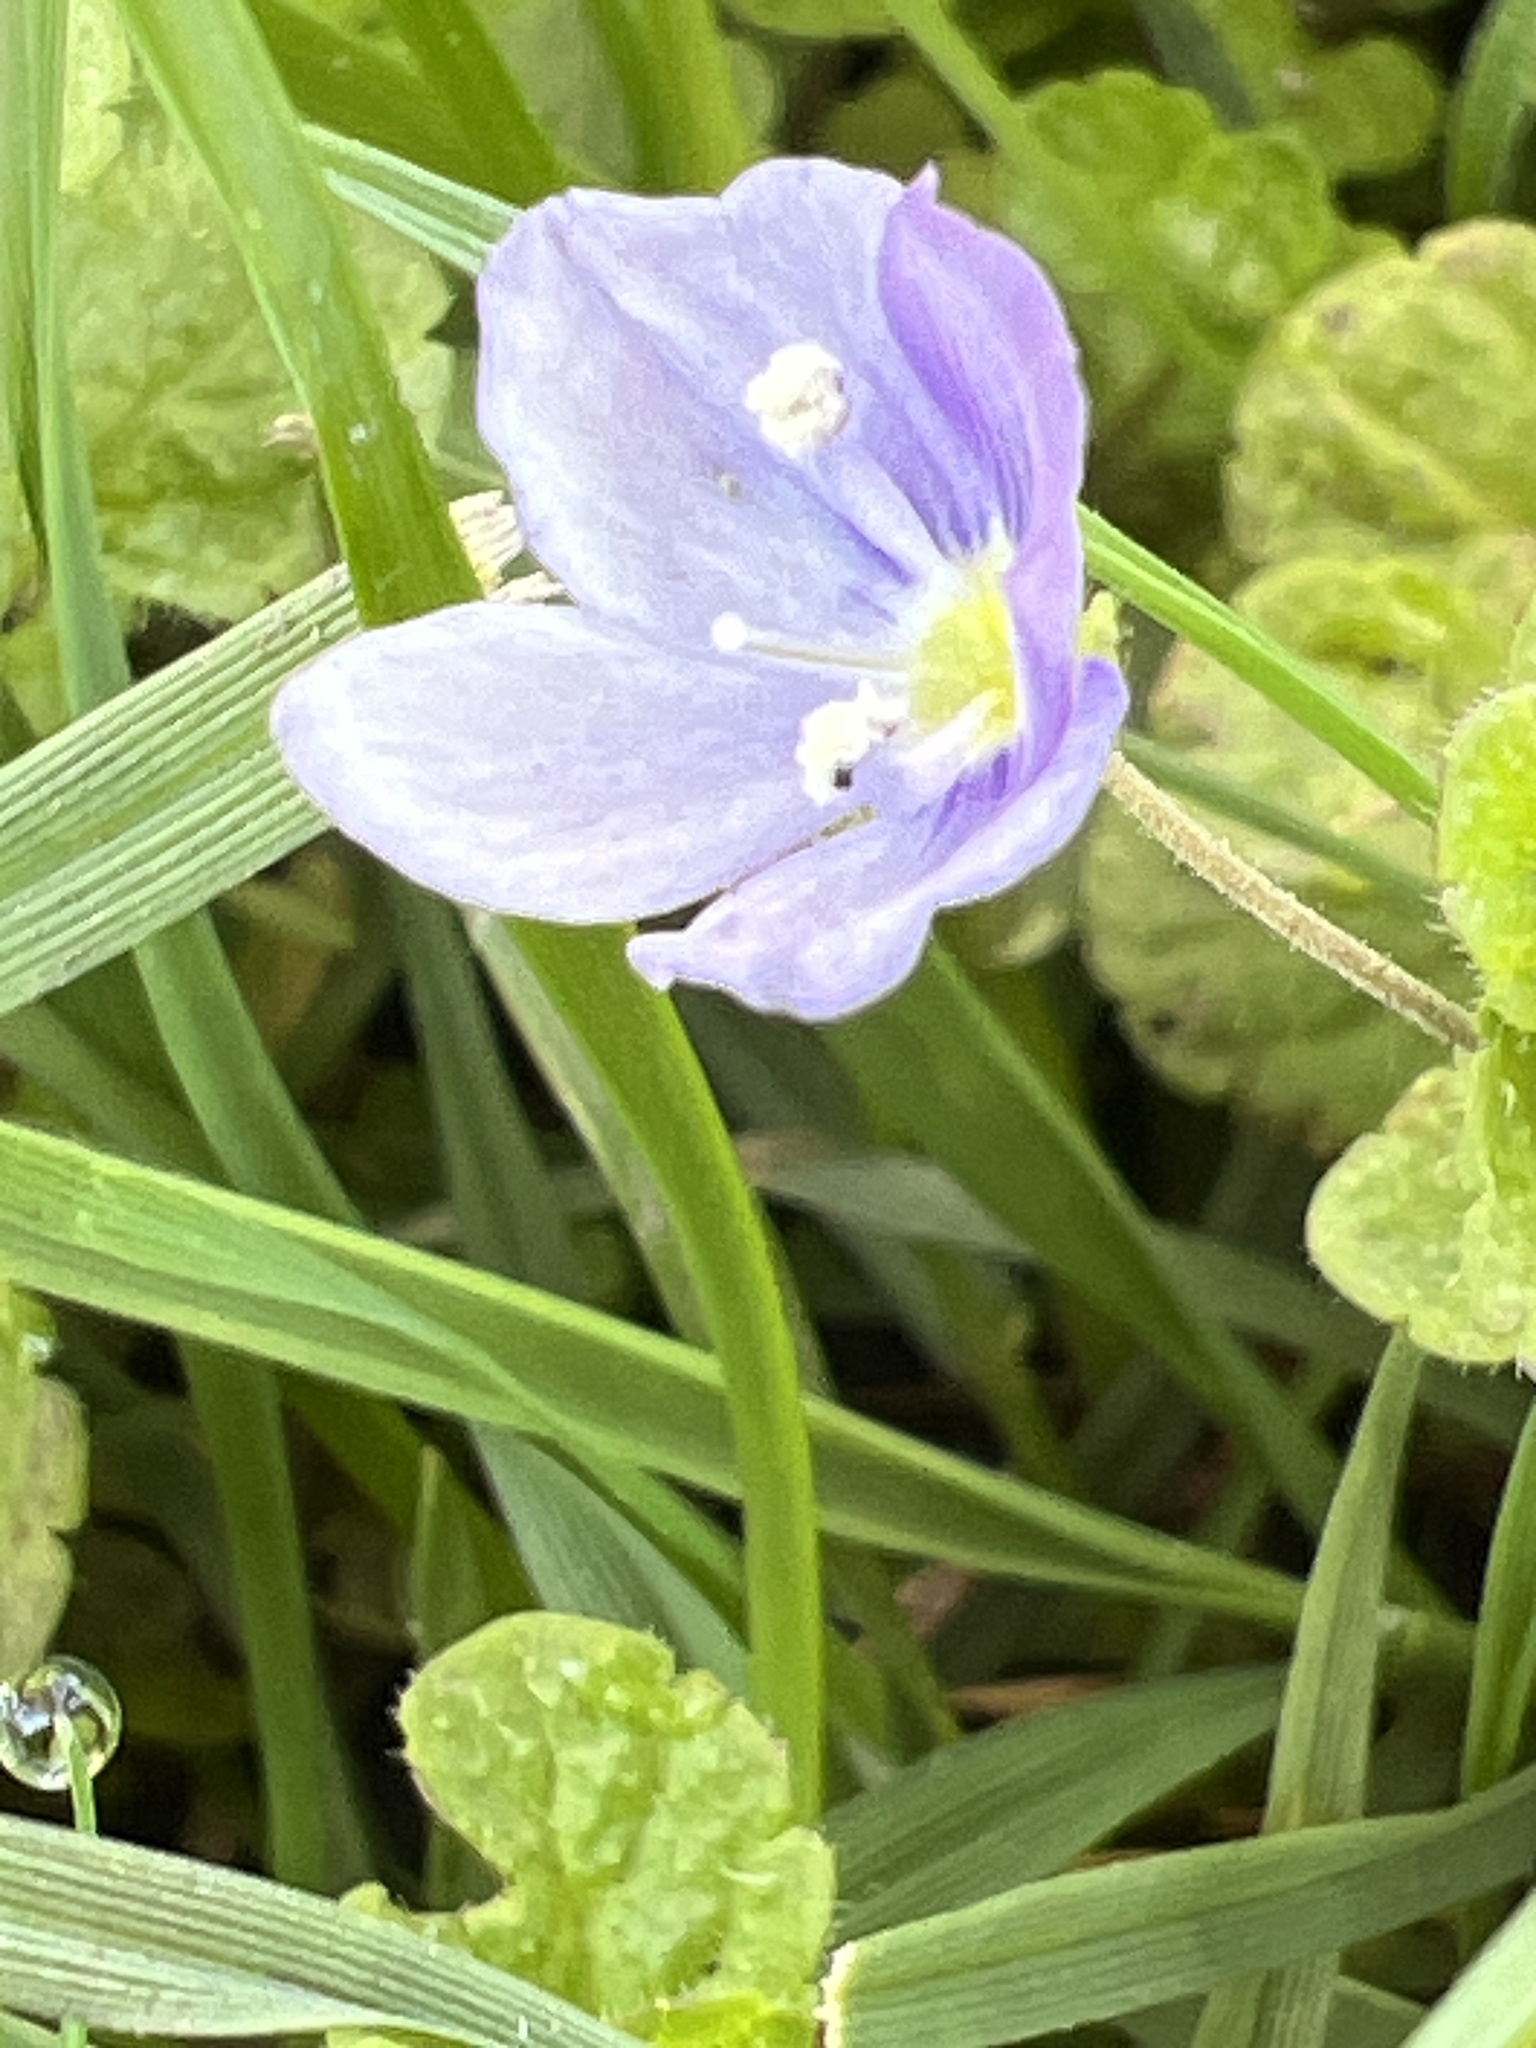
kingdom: Plantae
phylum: Tracheophyta
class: Magnoliopsida
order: Lamiales
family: Plantaginaceae
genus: Veronica
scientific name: Veronica filiformis
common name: Slender speedwell
